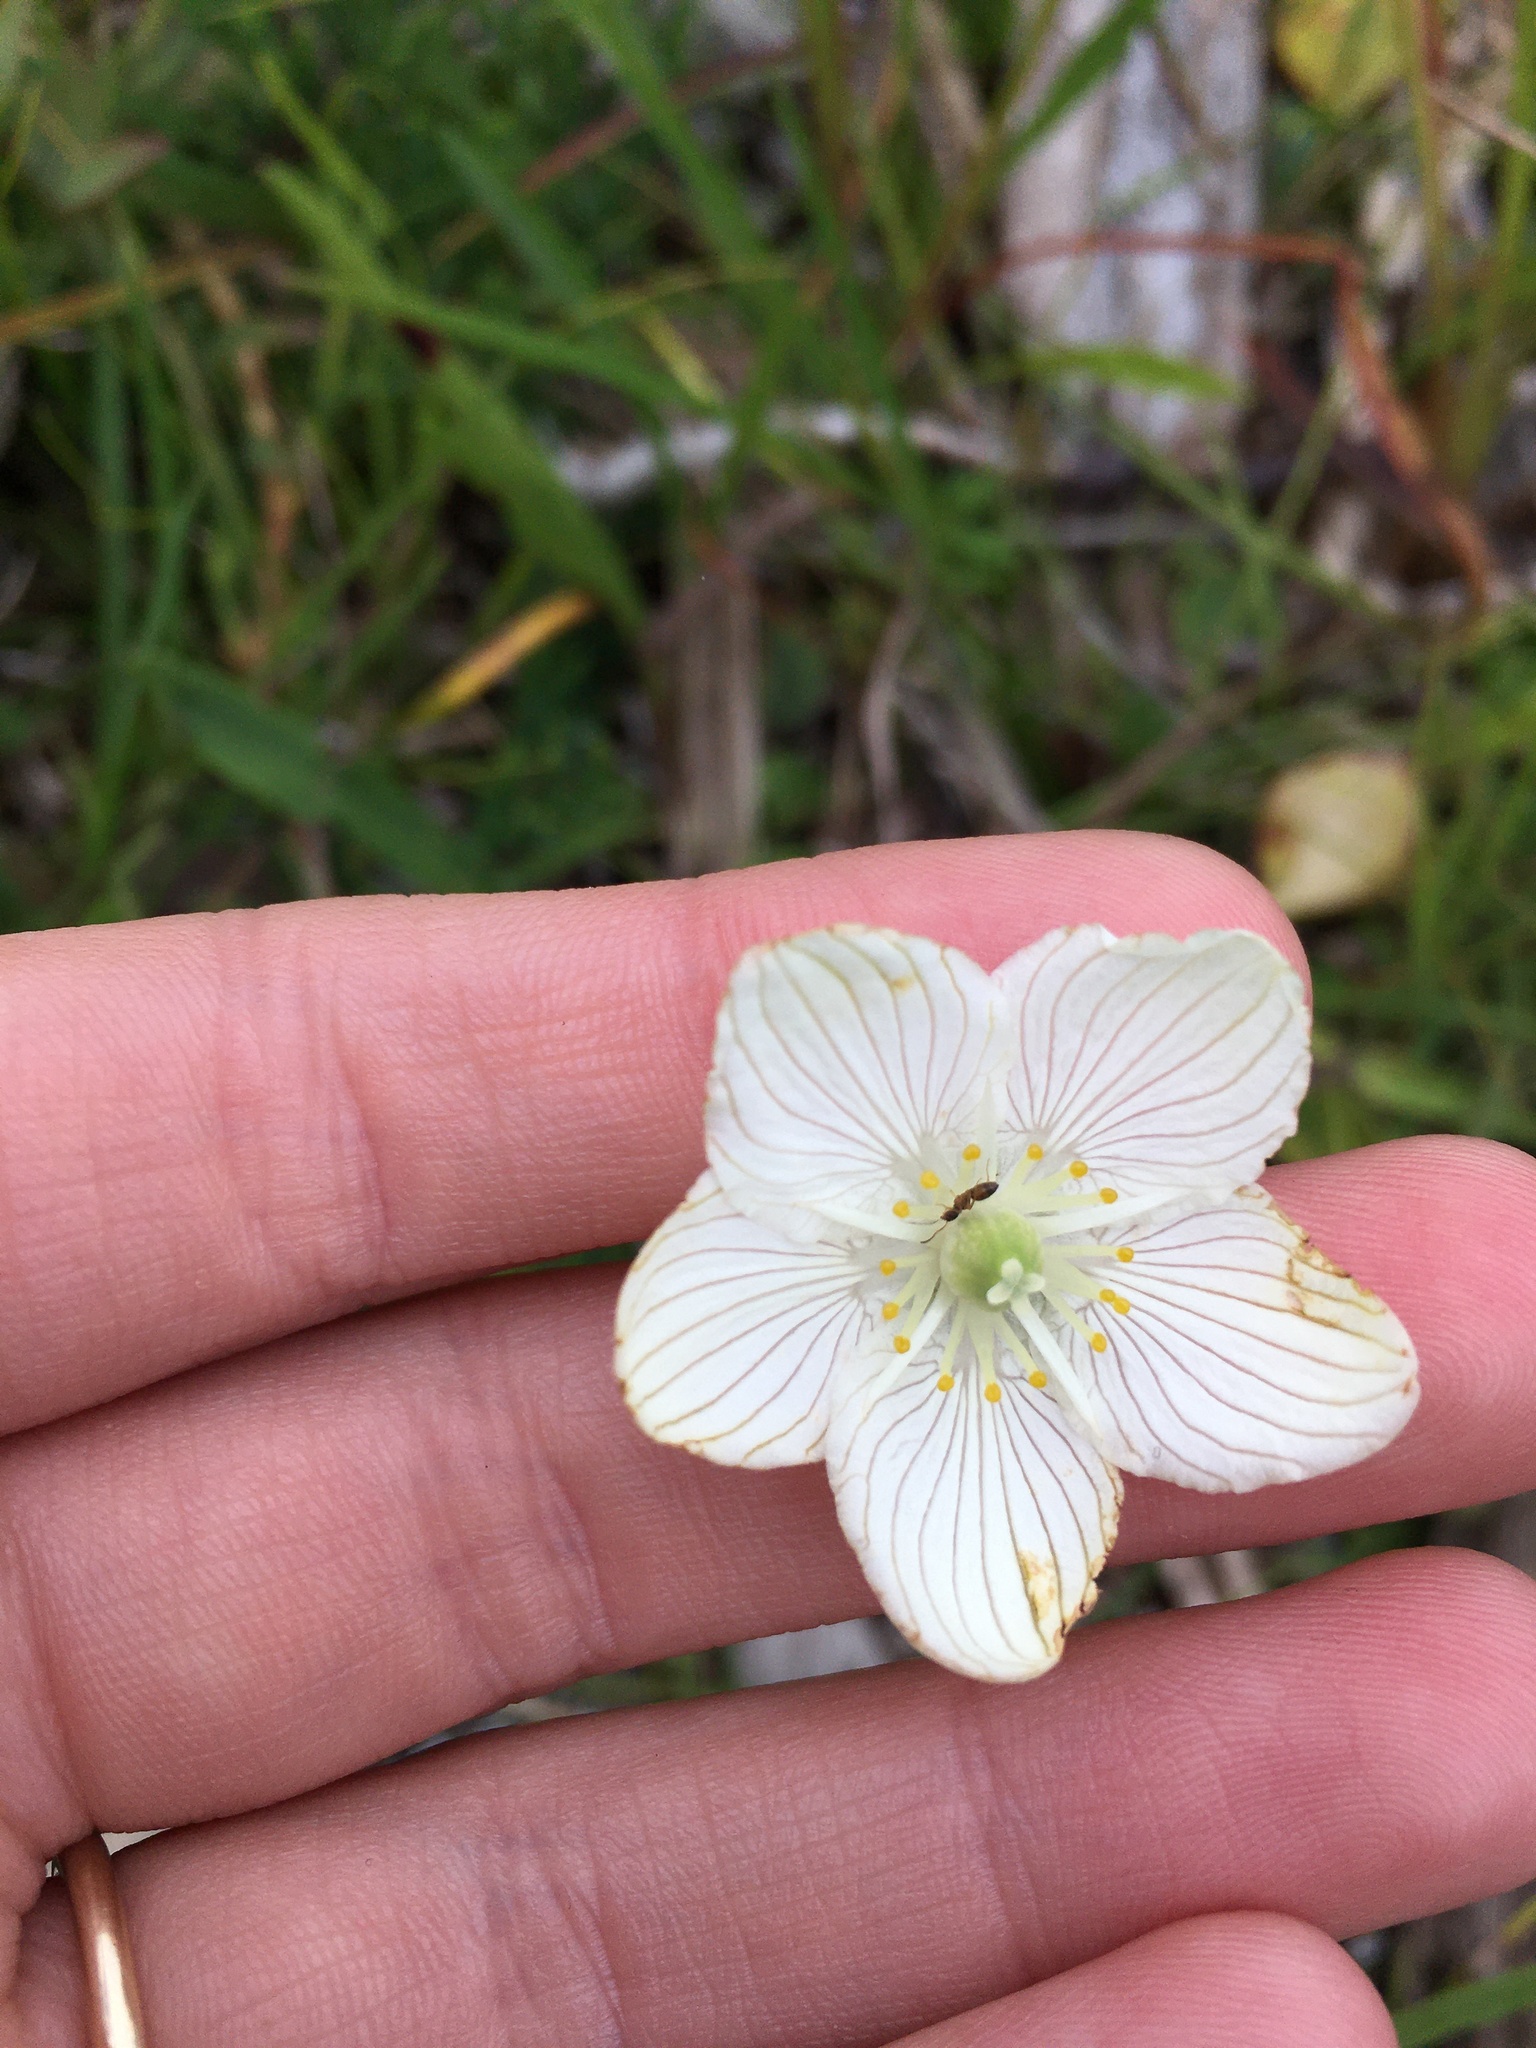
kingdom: Plantae
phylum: Tracheophyta
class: Magnoliopsida
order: Celastrales
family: Parnassiaceae
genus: Parnassia
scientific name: Parnassia glauca
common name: American grass-of-parnassus
